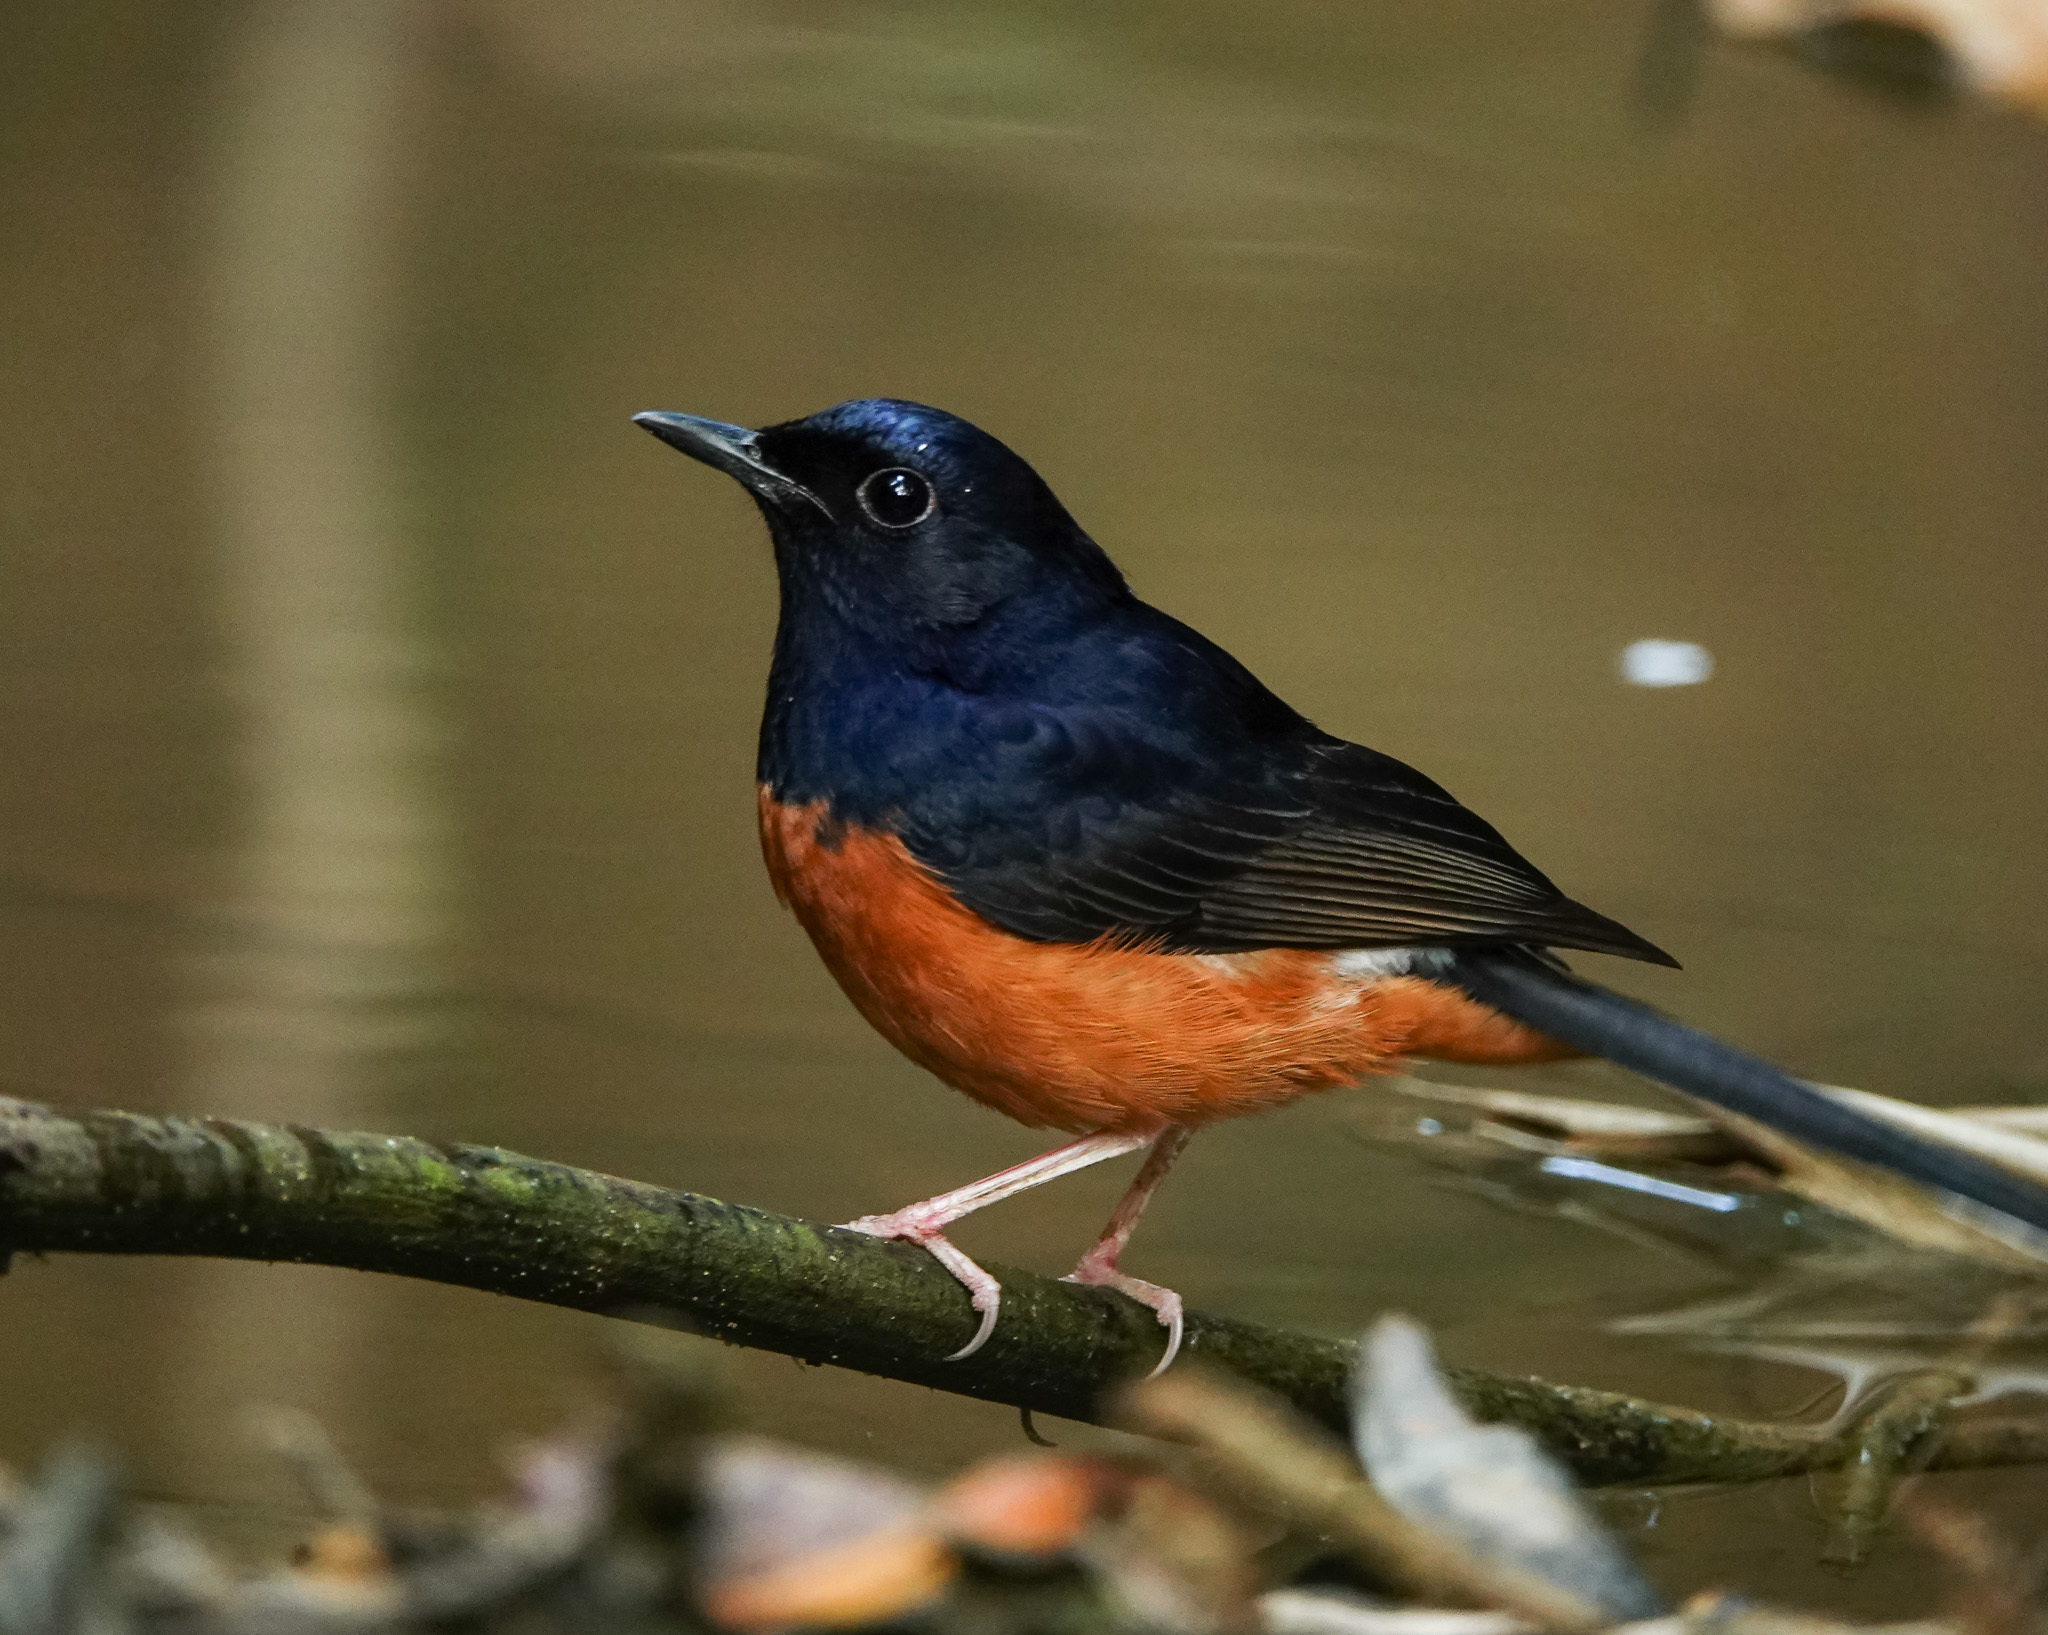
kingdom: Animalia
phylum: Chordata
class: Aves
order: Passeriformes
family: Muscicapidae
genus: Copsychus
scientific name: Copsychus malabaricus
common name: White-rumped shama
